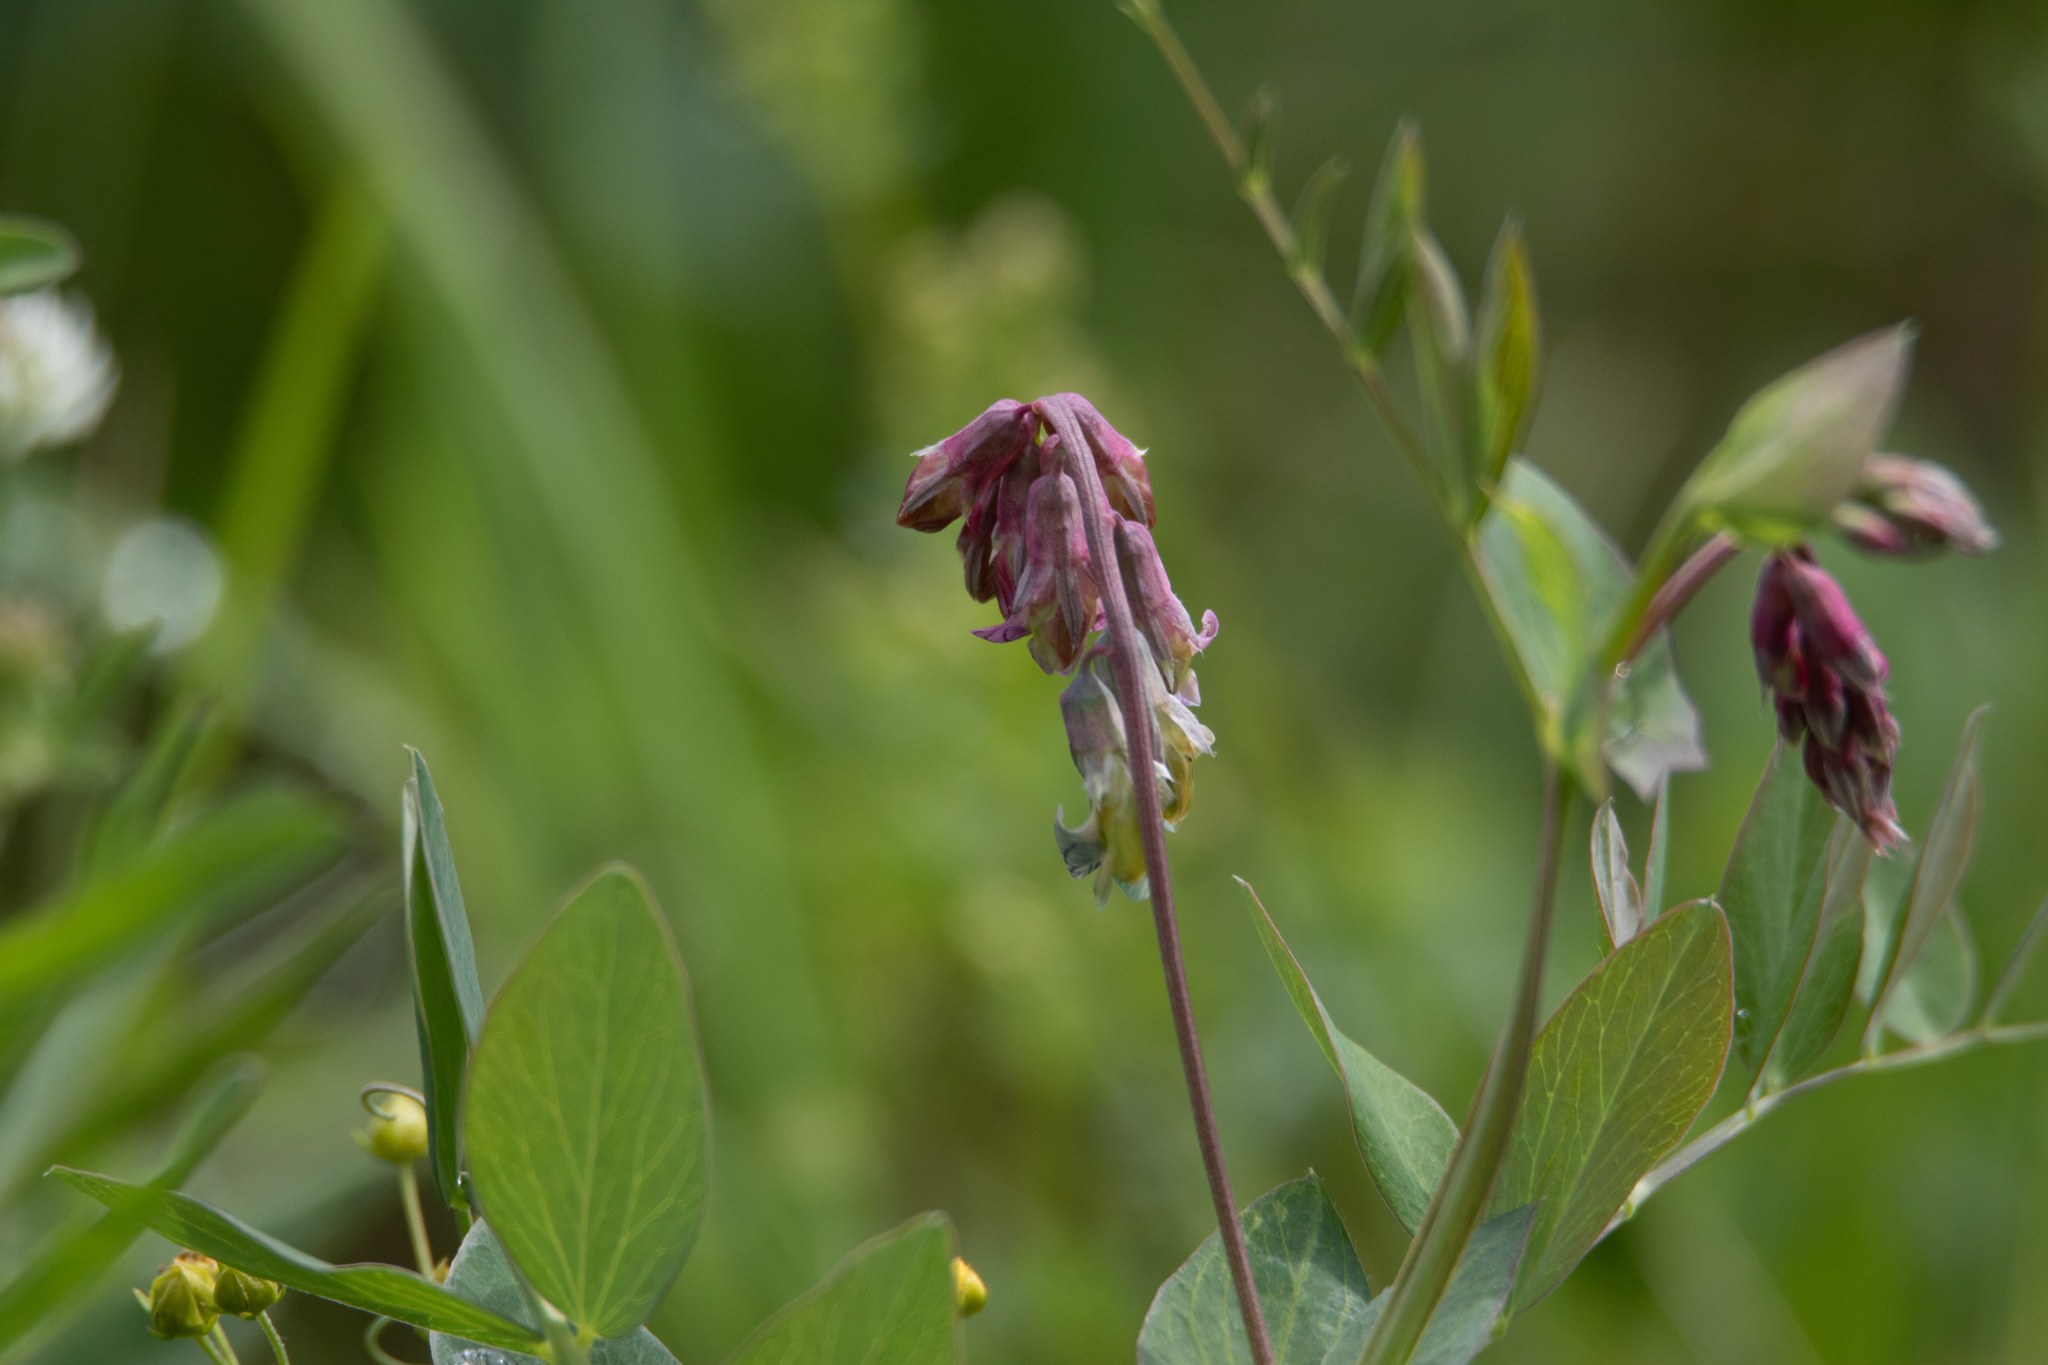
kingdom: Plantae
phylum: Tracheophyta
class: Magnoliopsida
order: Fabales
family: Fabaceae
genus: Lathyrus
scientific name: Lathyrus pisiformis
